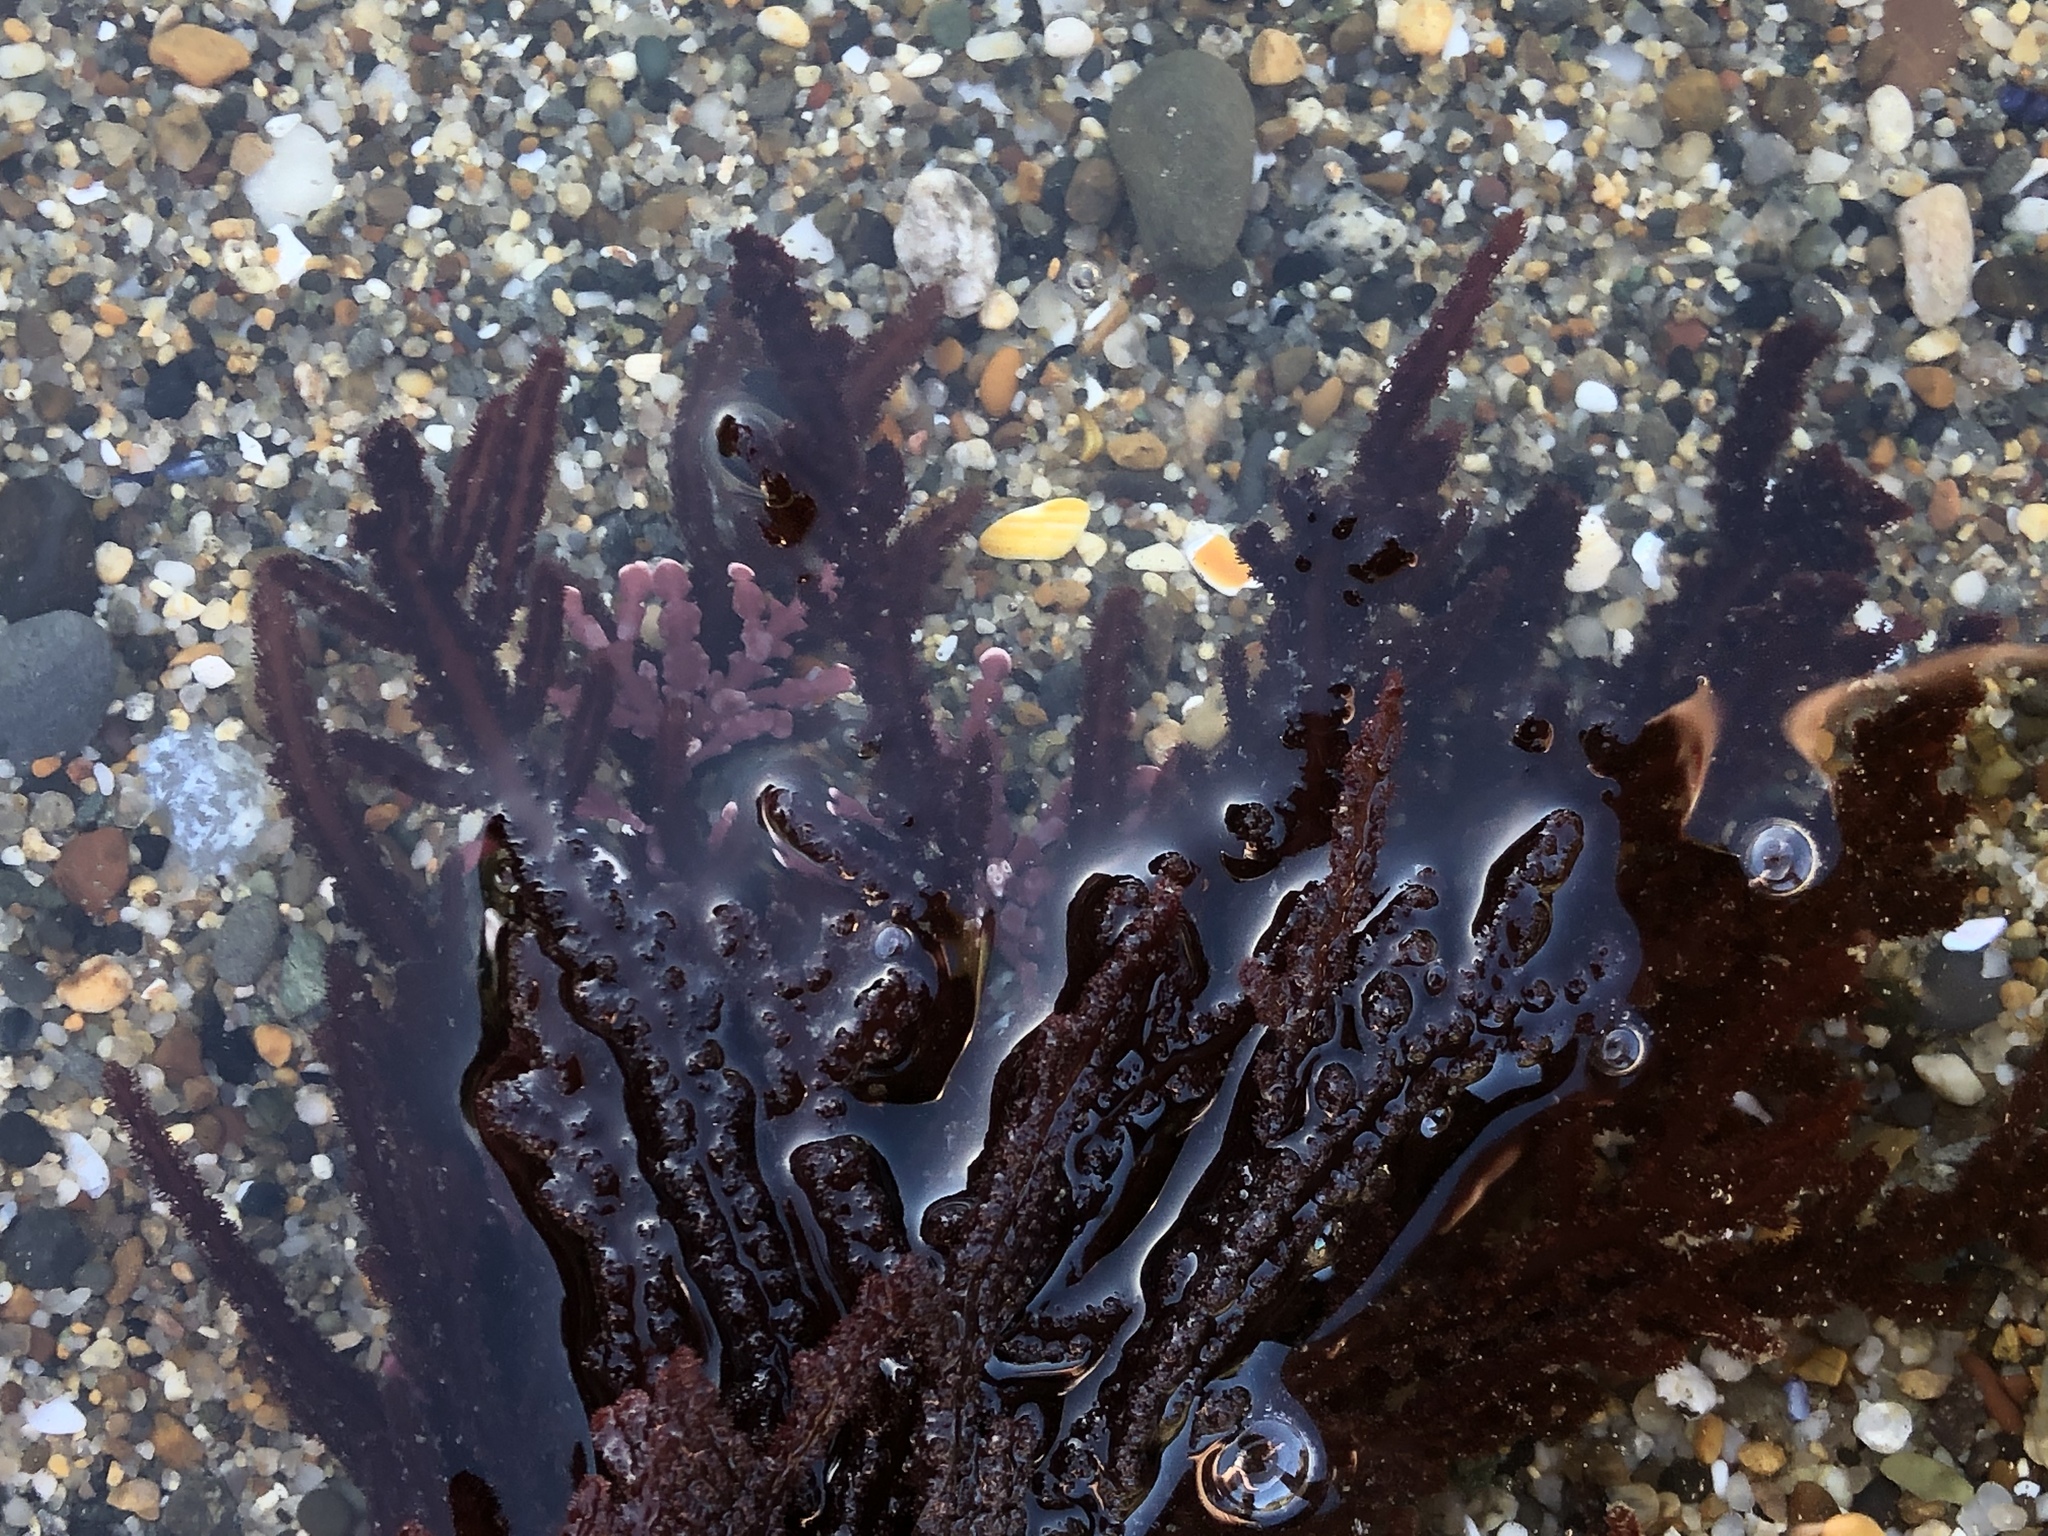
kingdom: Plantae
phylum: Rhodophyta
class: Florideophyceae
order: Ceramiales
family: Wrangeliaceae
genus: Neoptilota
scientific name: Neoptilota densa
